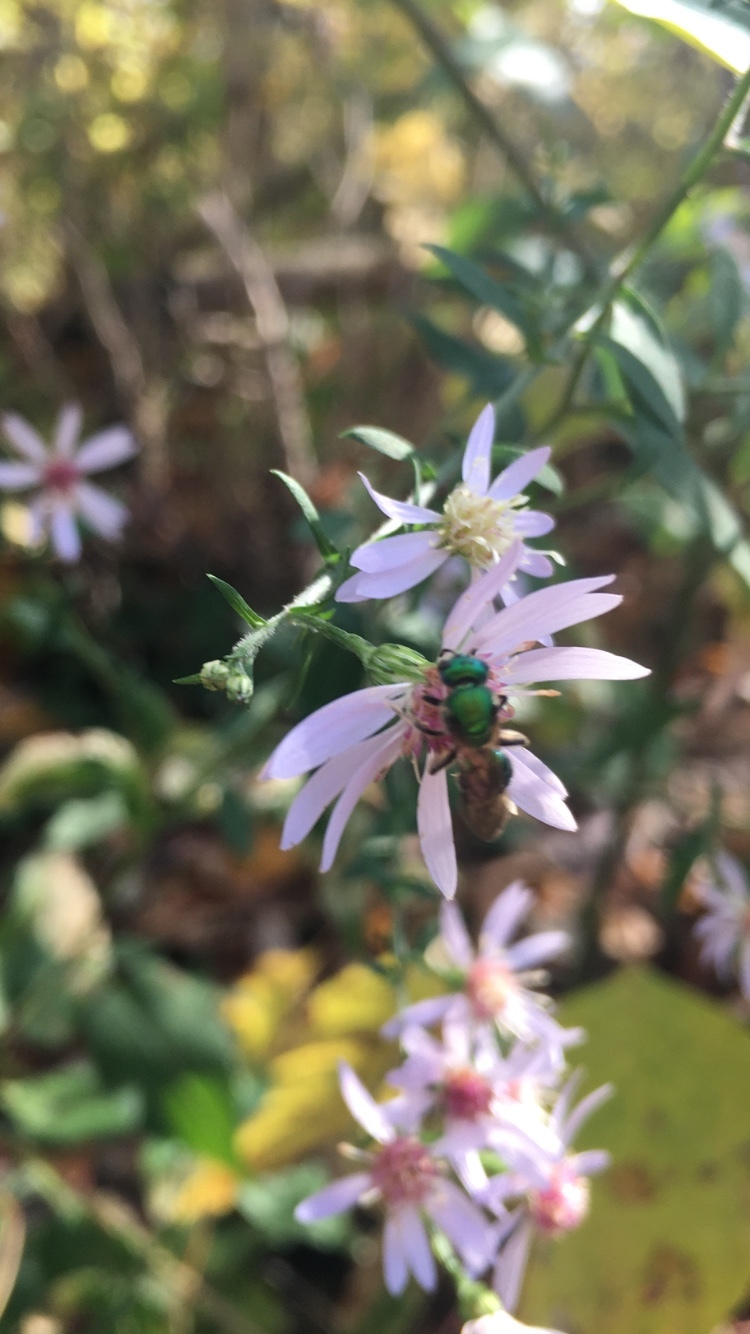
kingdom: Animalia
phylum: Arthropoda
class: Insecta
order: Hymenoptera
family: Halictidae
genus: Augochlora
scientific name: Augochlora pura
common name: Pure green sweat bee
